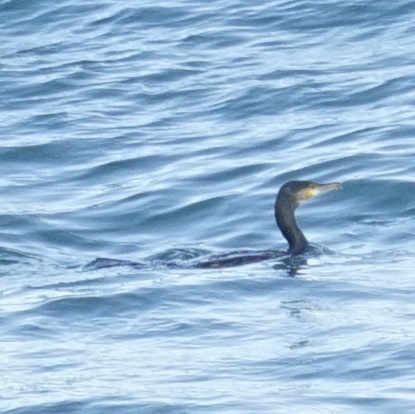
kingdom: Animalia
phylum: Chordata
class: Aves
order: Suliformes
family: Phalacrocoracidae
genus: Phalacrocorax
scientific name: Phalacrocorax carbo
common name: Great cormorant
